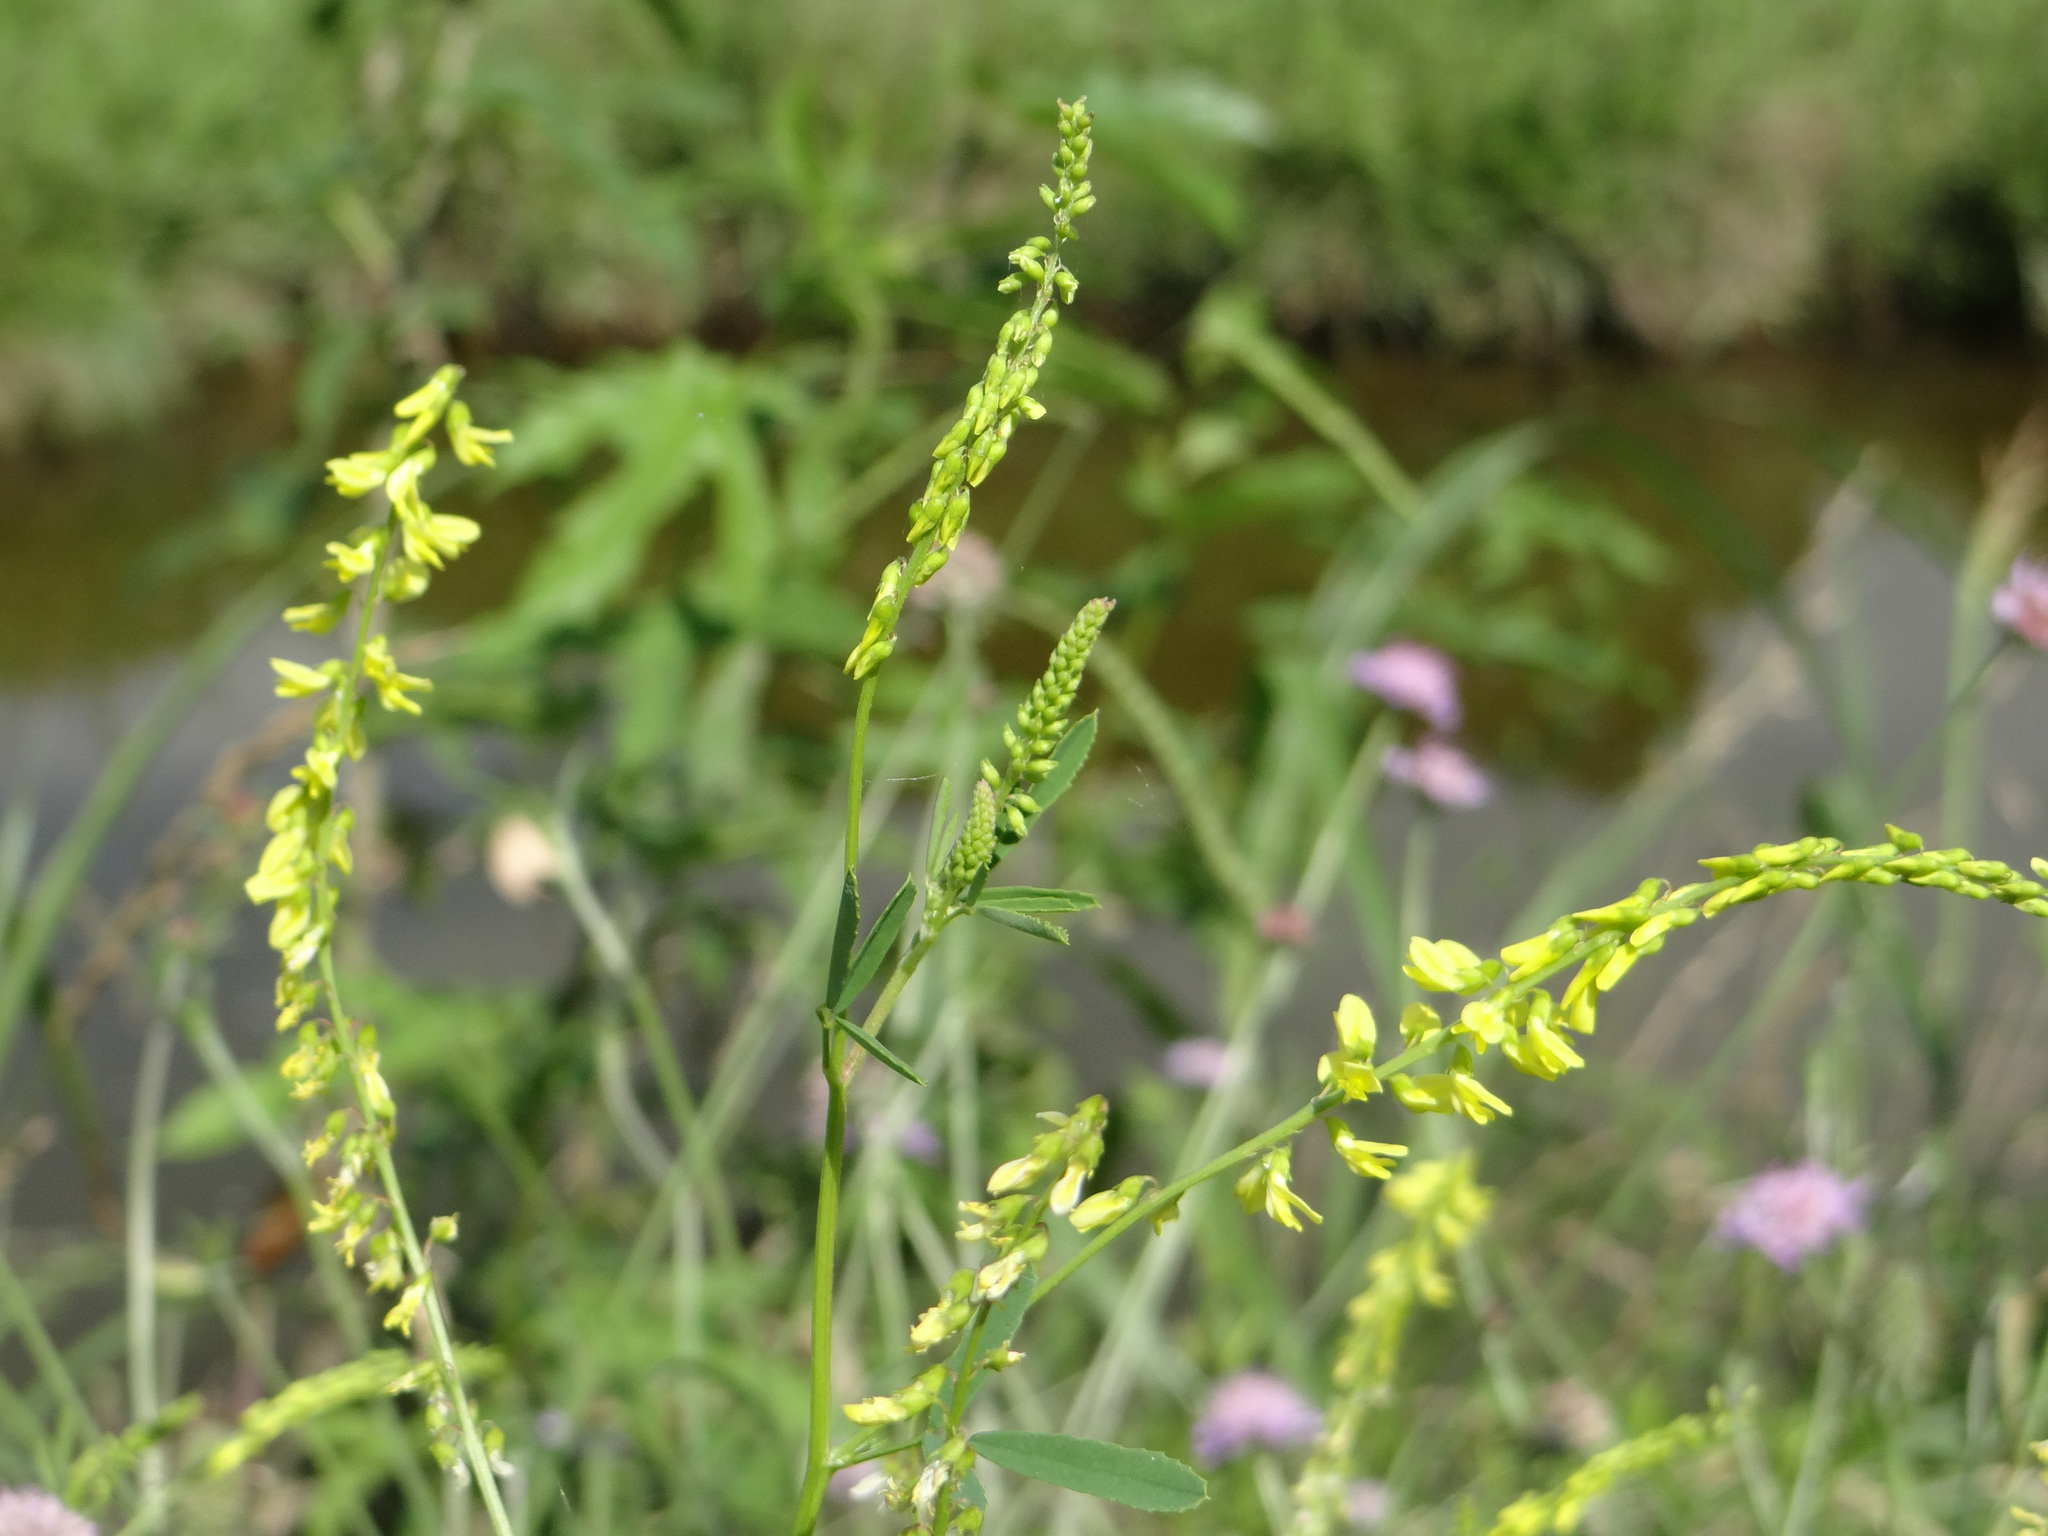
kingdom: Plantae
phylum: Tracheophyta
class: Magnoliopsida
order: Fabales
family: Fabaceae
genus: Melilotus
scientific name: Melilotus officinalis
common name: Sweetclover
